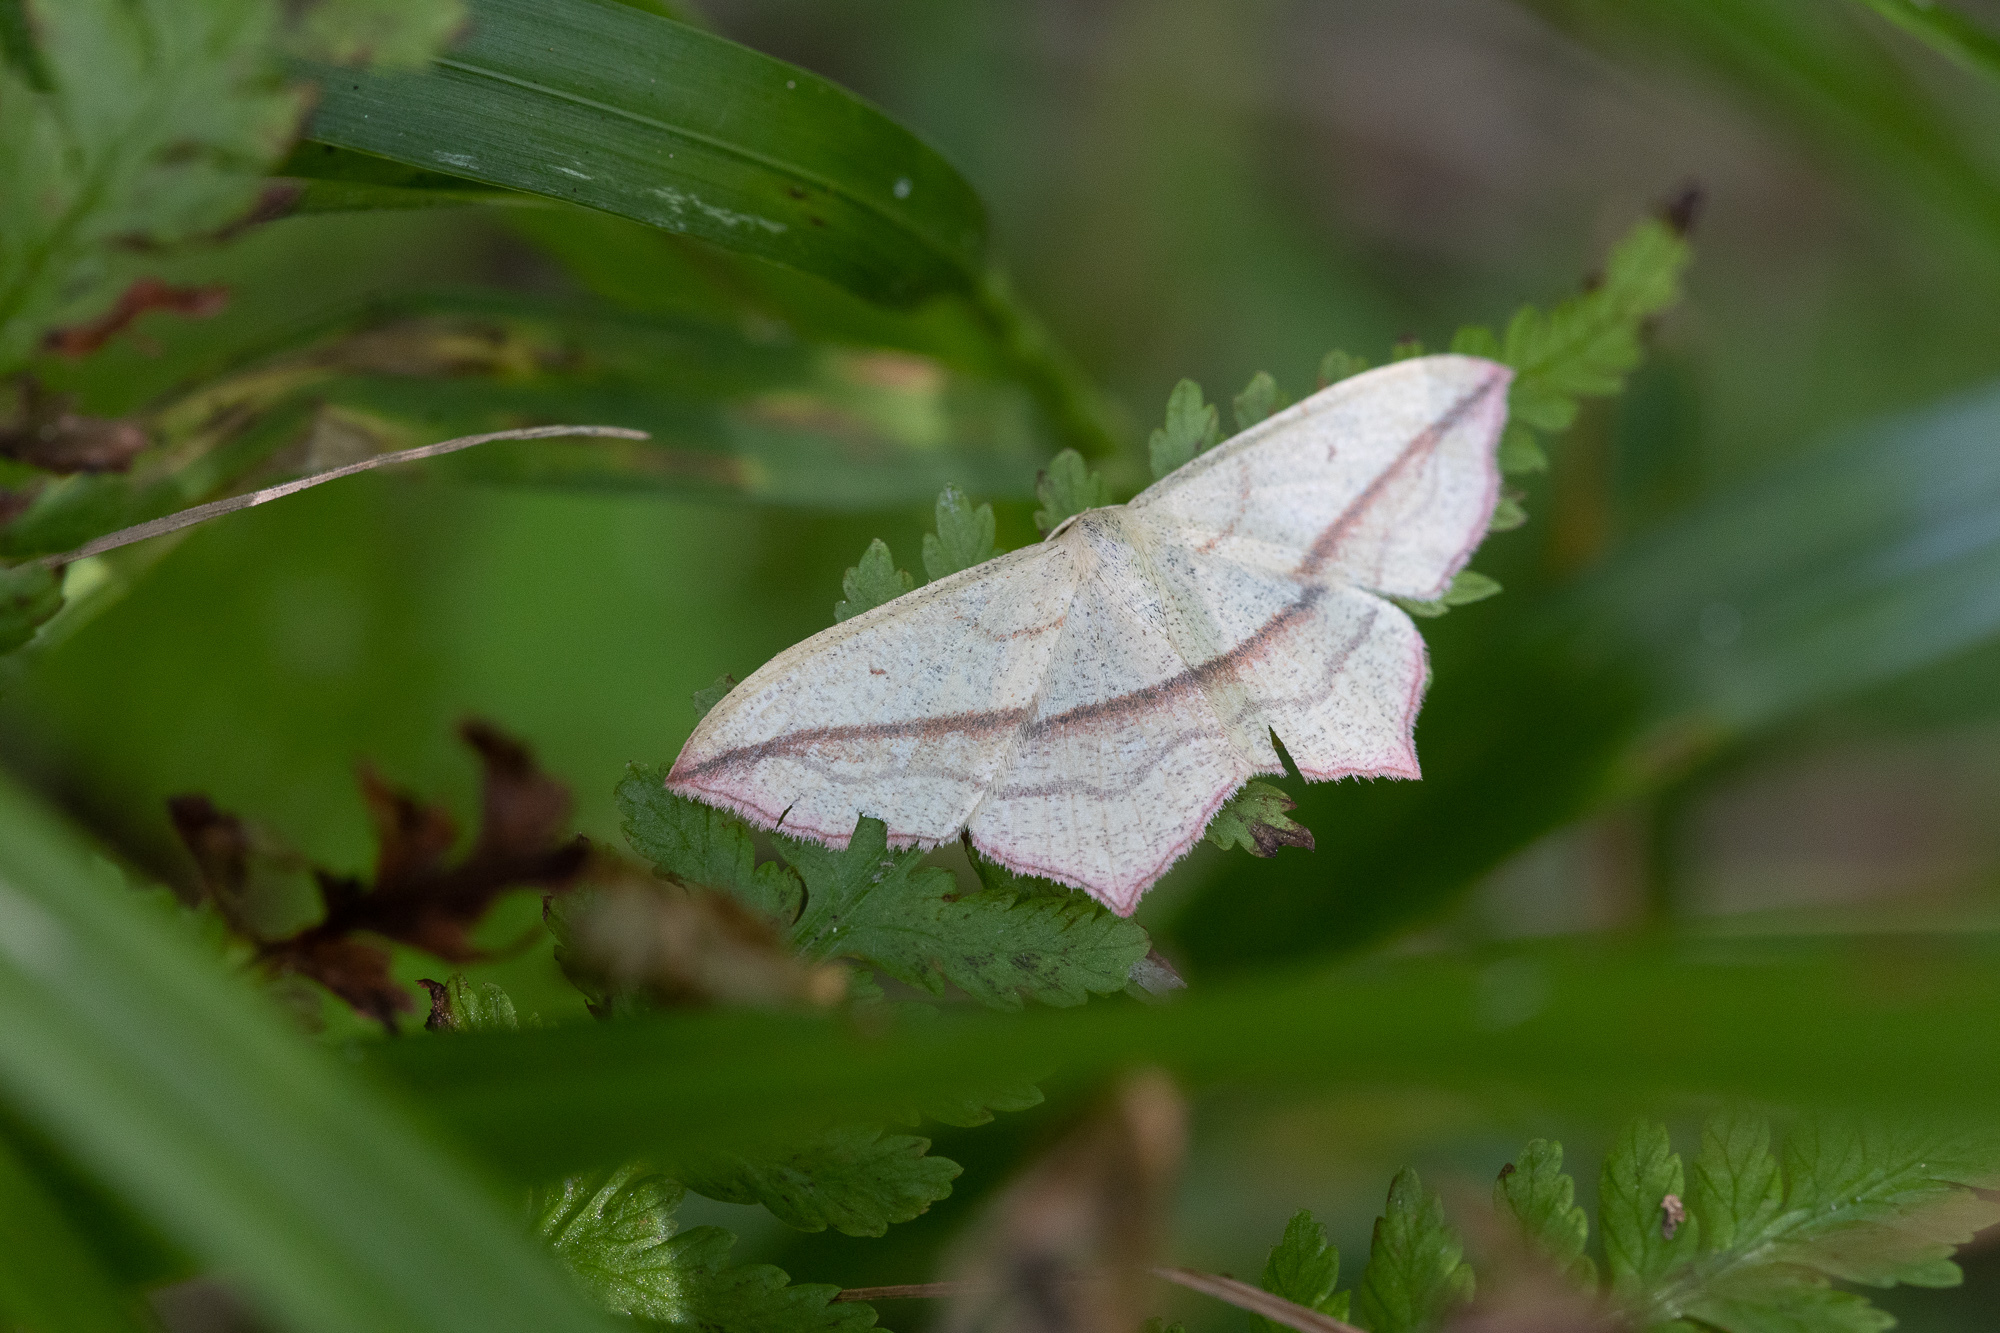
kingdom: Animalia
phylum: Arthropoda
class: Insecta
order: Lepidoptera
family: Geometridae
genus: Timandra
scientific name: Timandra comae
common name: Blood-vein
